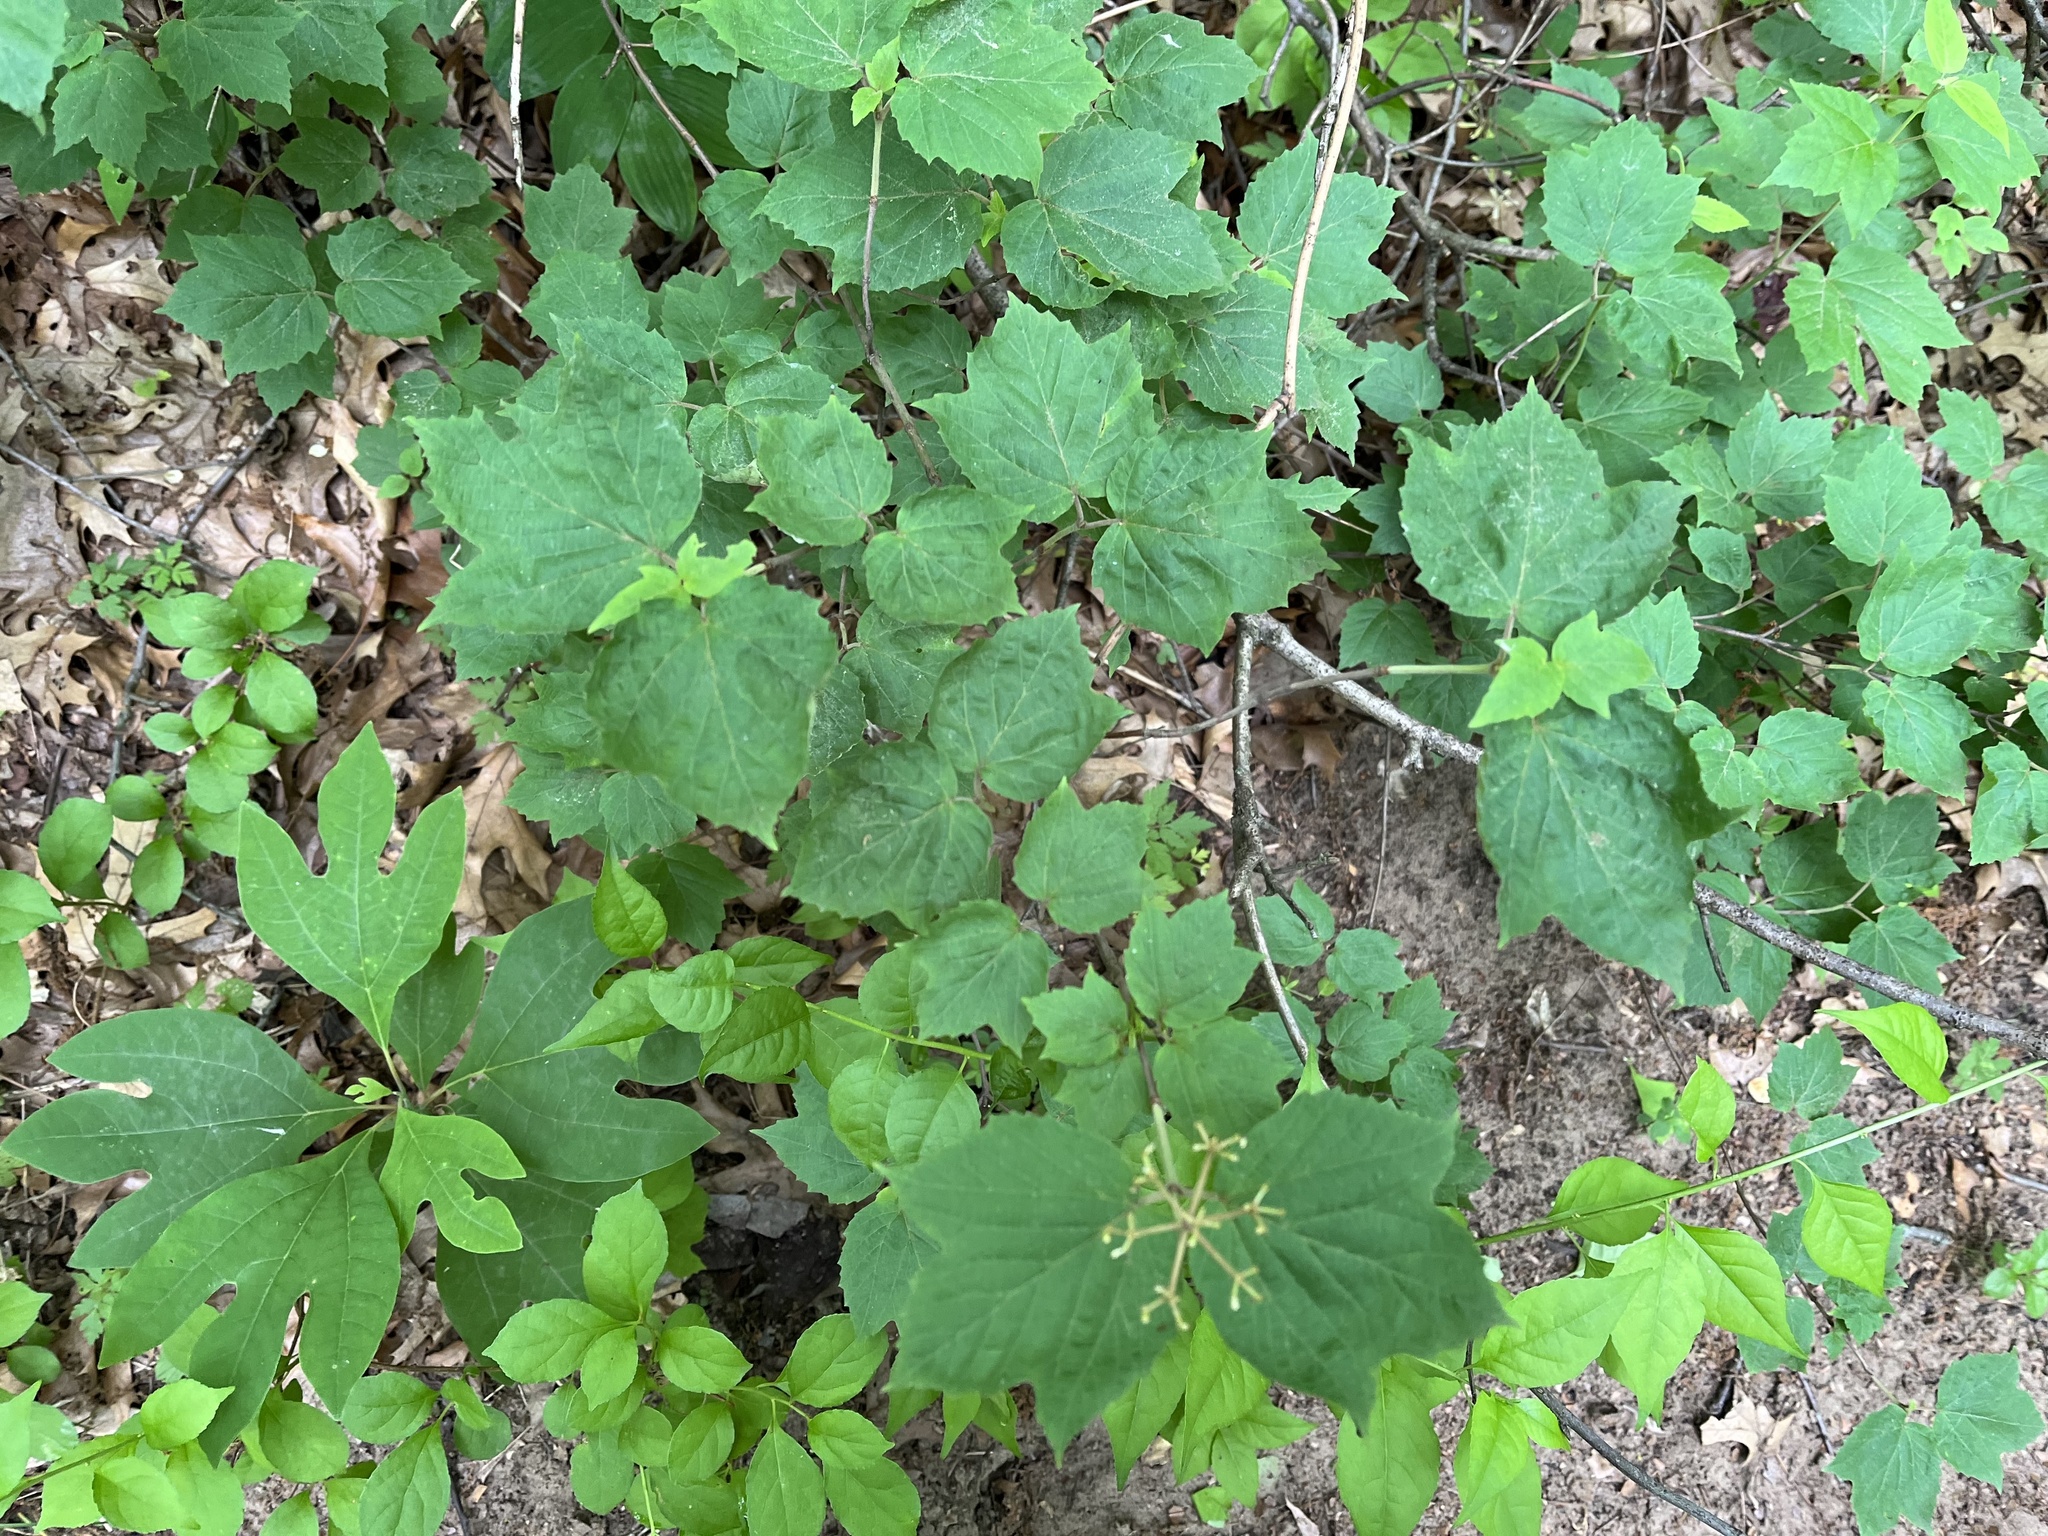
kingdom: Plantae
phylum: Tracheophyta
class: Magnoliopsida
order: Dipsacales
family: Viburnaceae
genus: Viburnum
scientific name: Viburnum acerifolium
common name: Dockmackie
